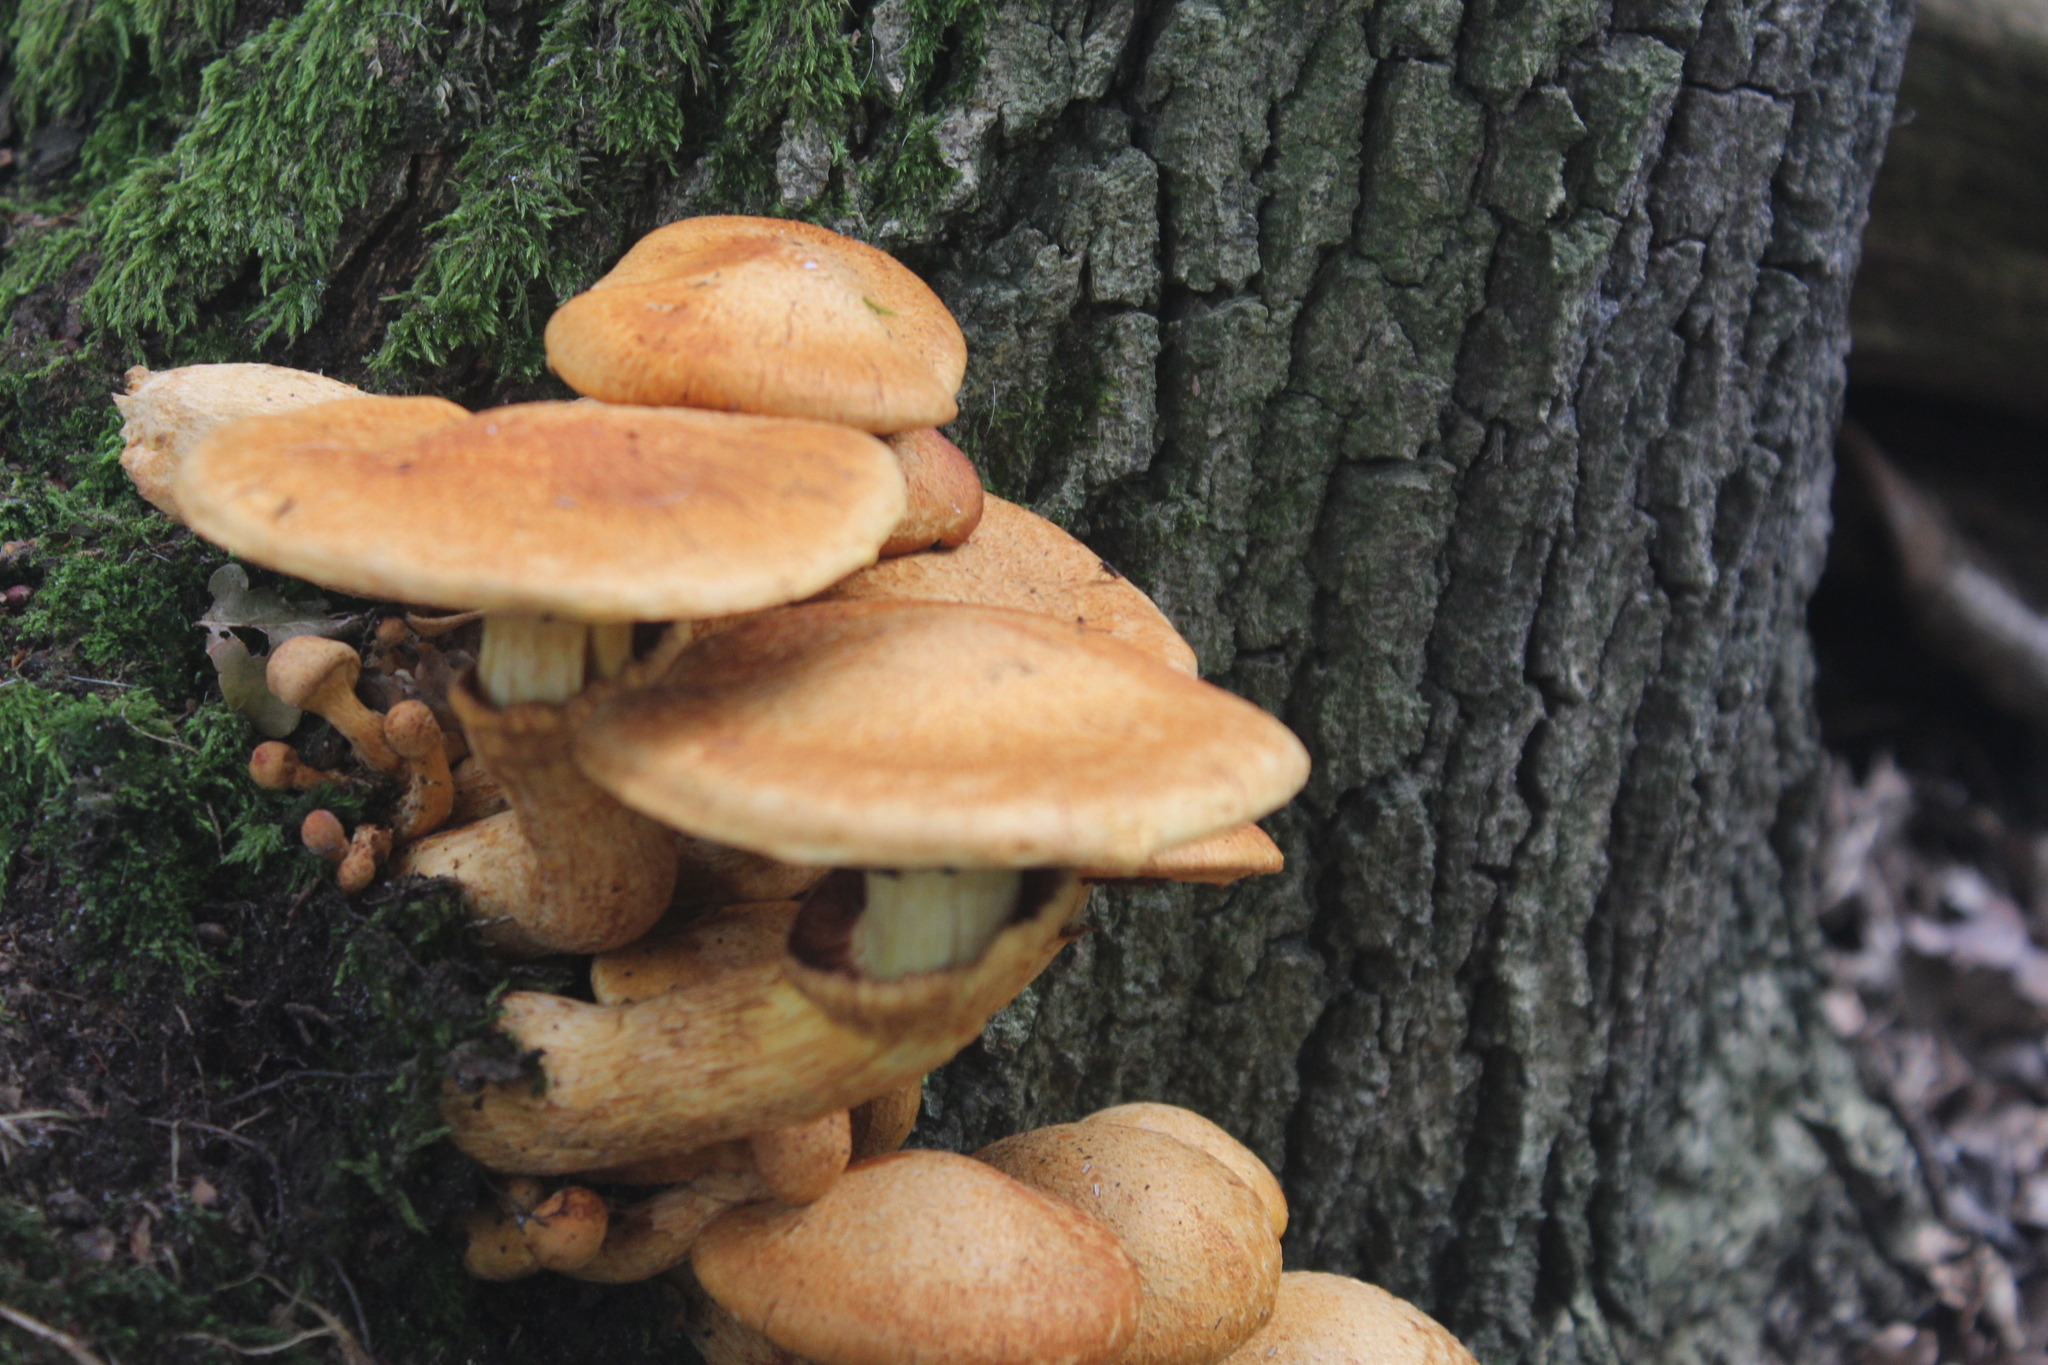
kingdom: Fungi
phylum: Basidiomycota
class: Agaricomycetes
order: Agaricales
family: Hymenogastraceae
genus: Gymnopilus
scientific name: Gymnopilus junonius
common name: Spectacular rustgill
